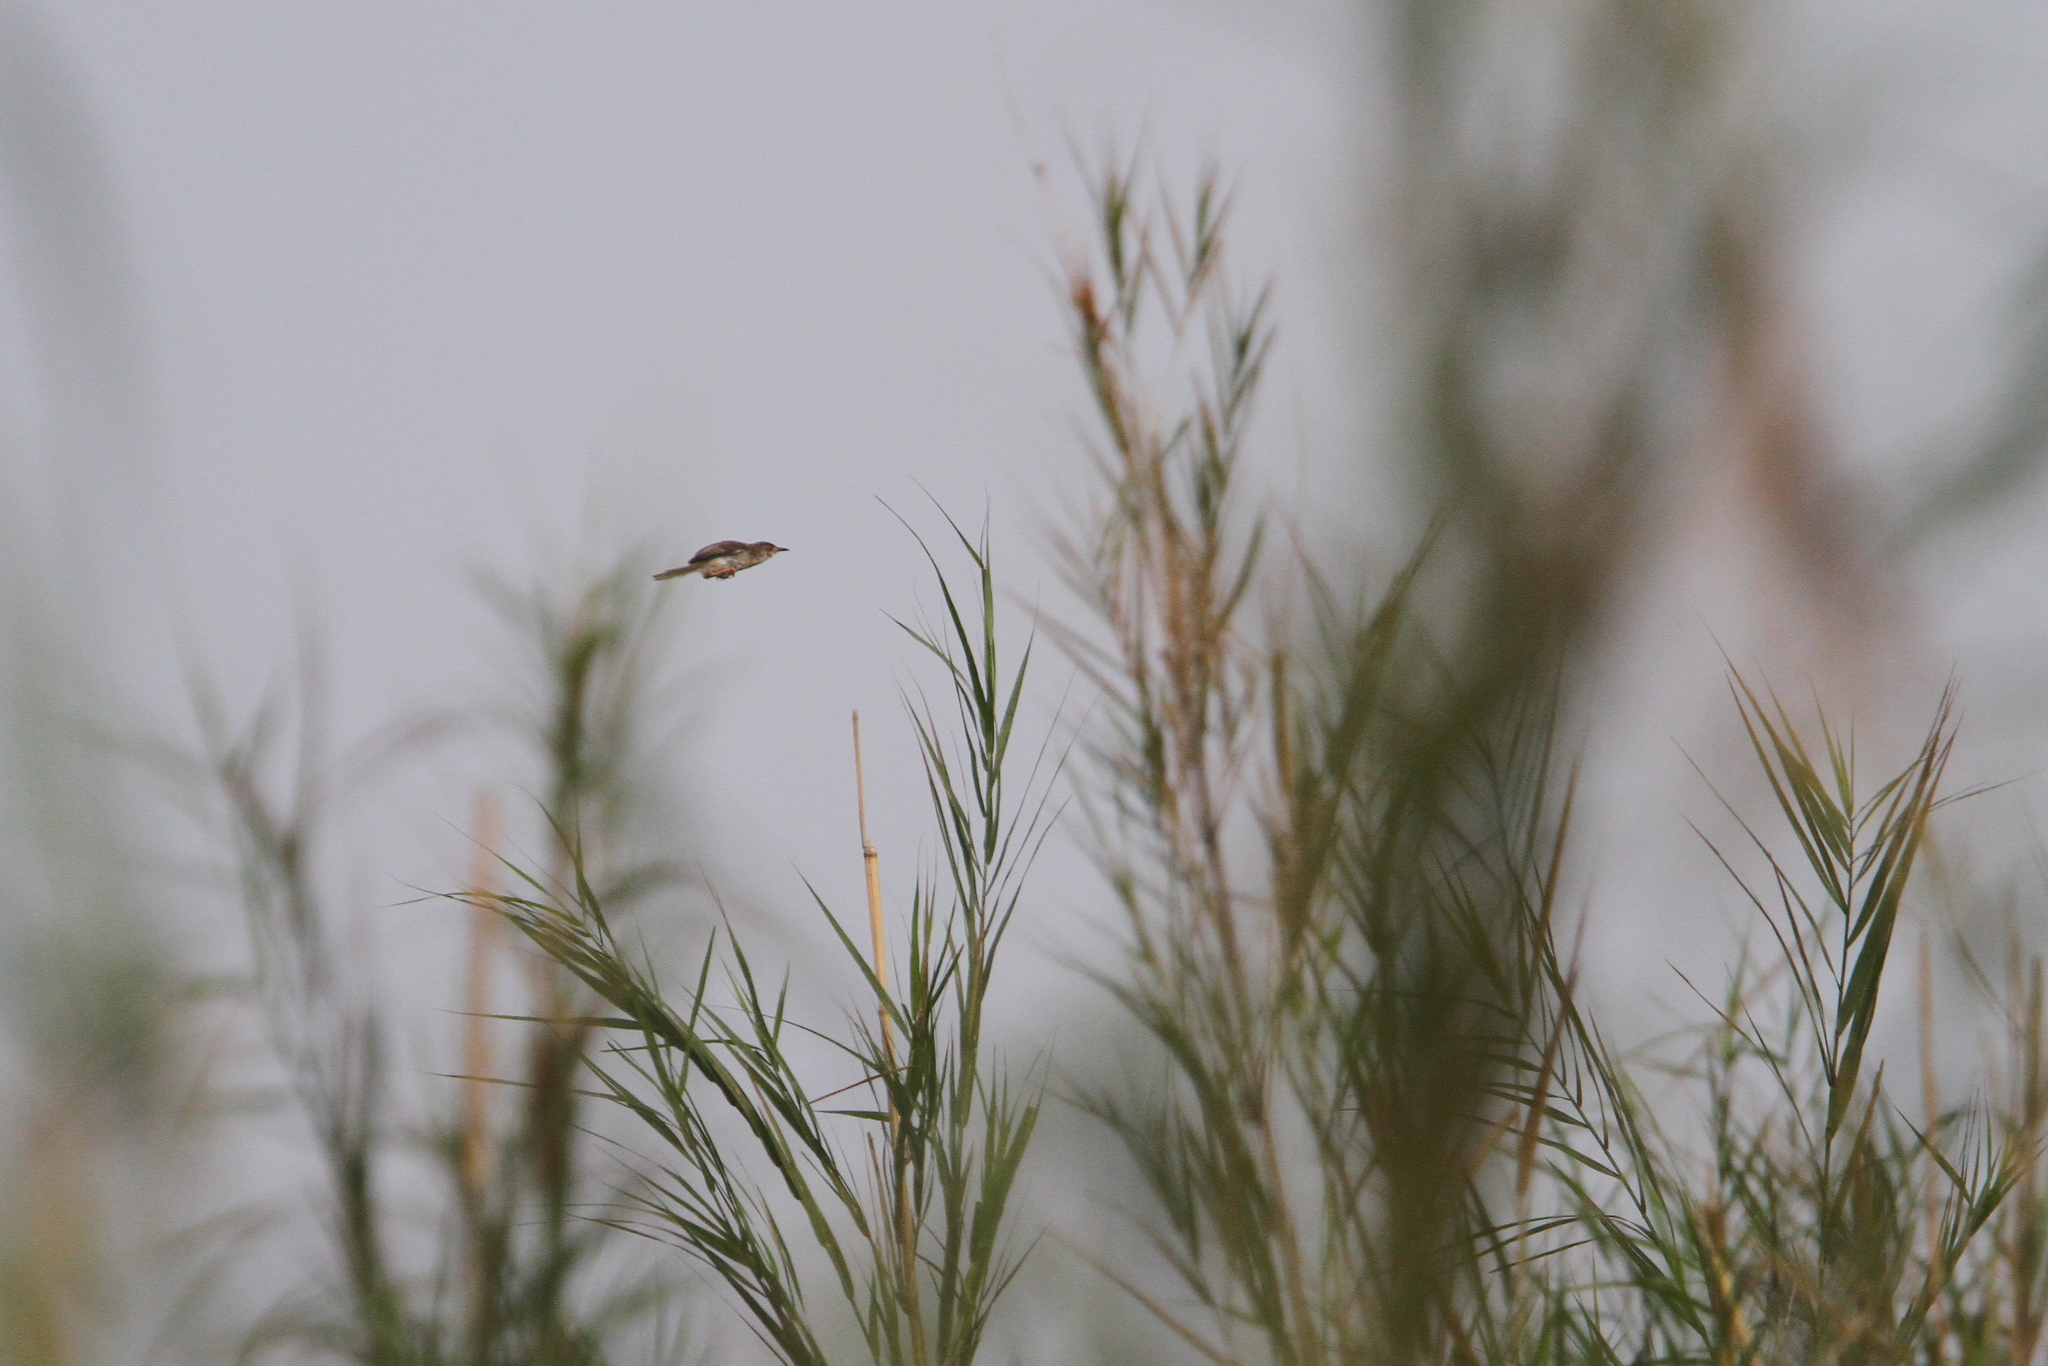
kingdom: Animalia
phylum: Chordata
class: Aves
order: Passeriformes
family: Cisticolidae
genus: Prinia
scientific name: Prinia inornata
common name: Plain prinia
